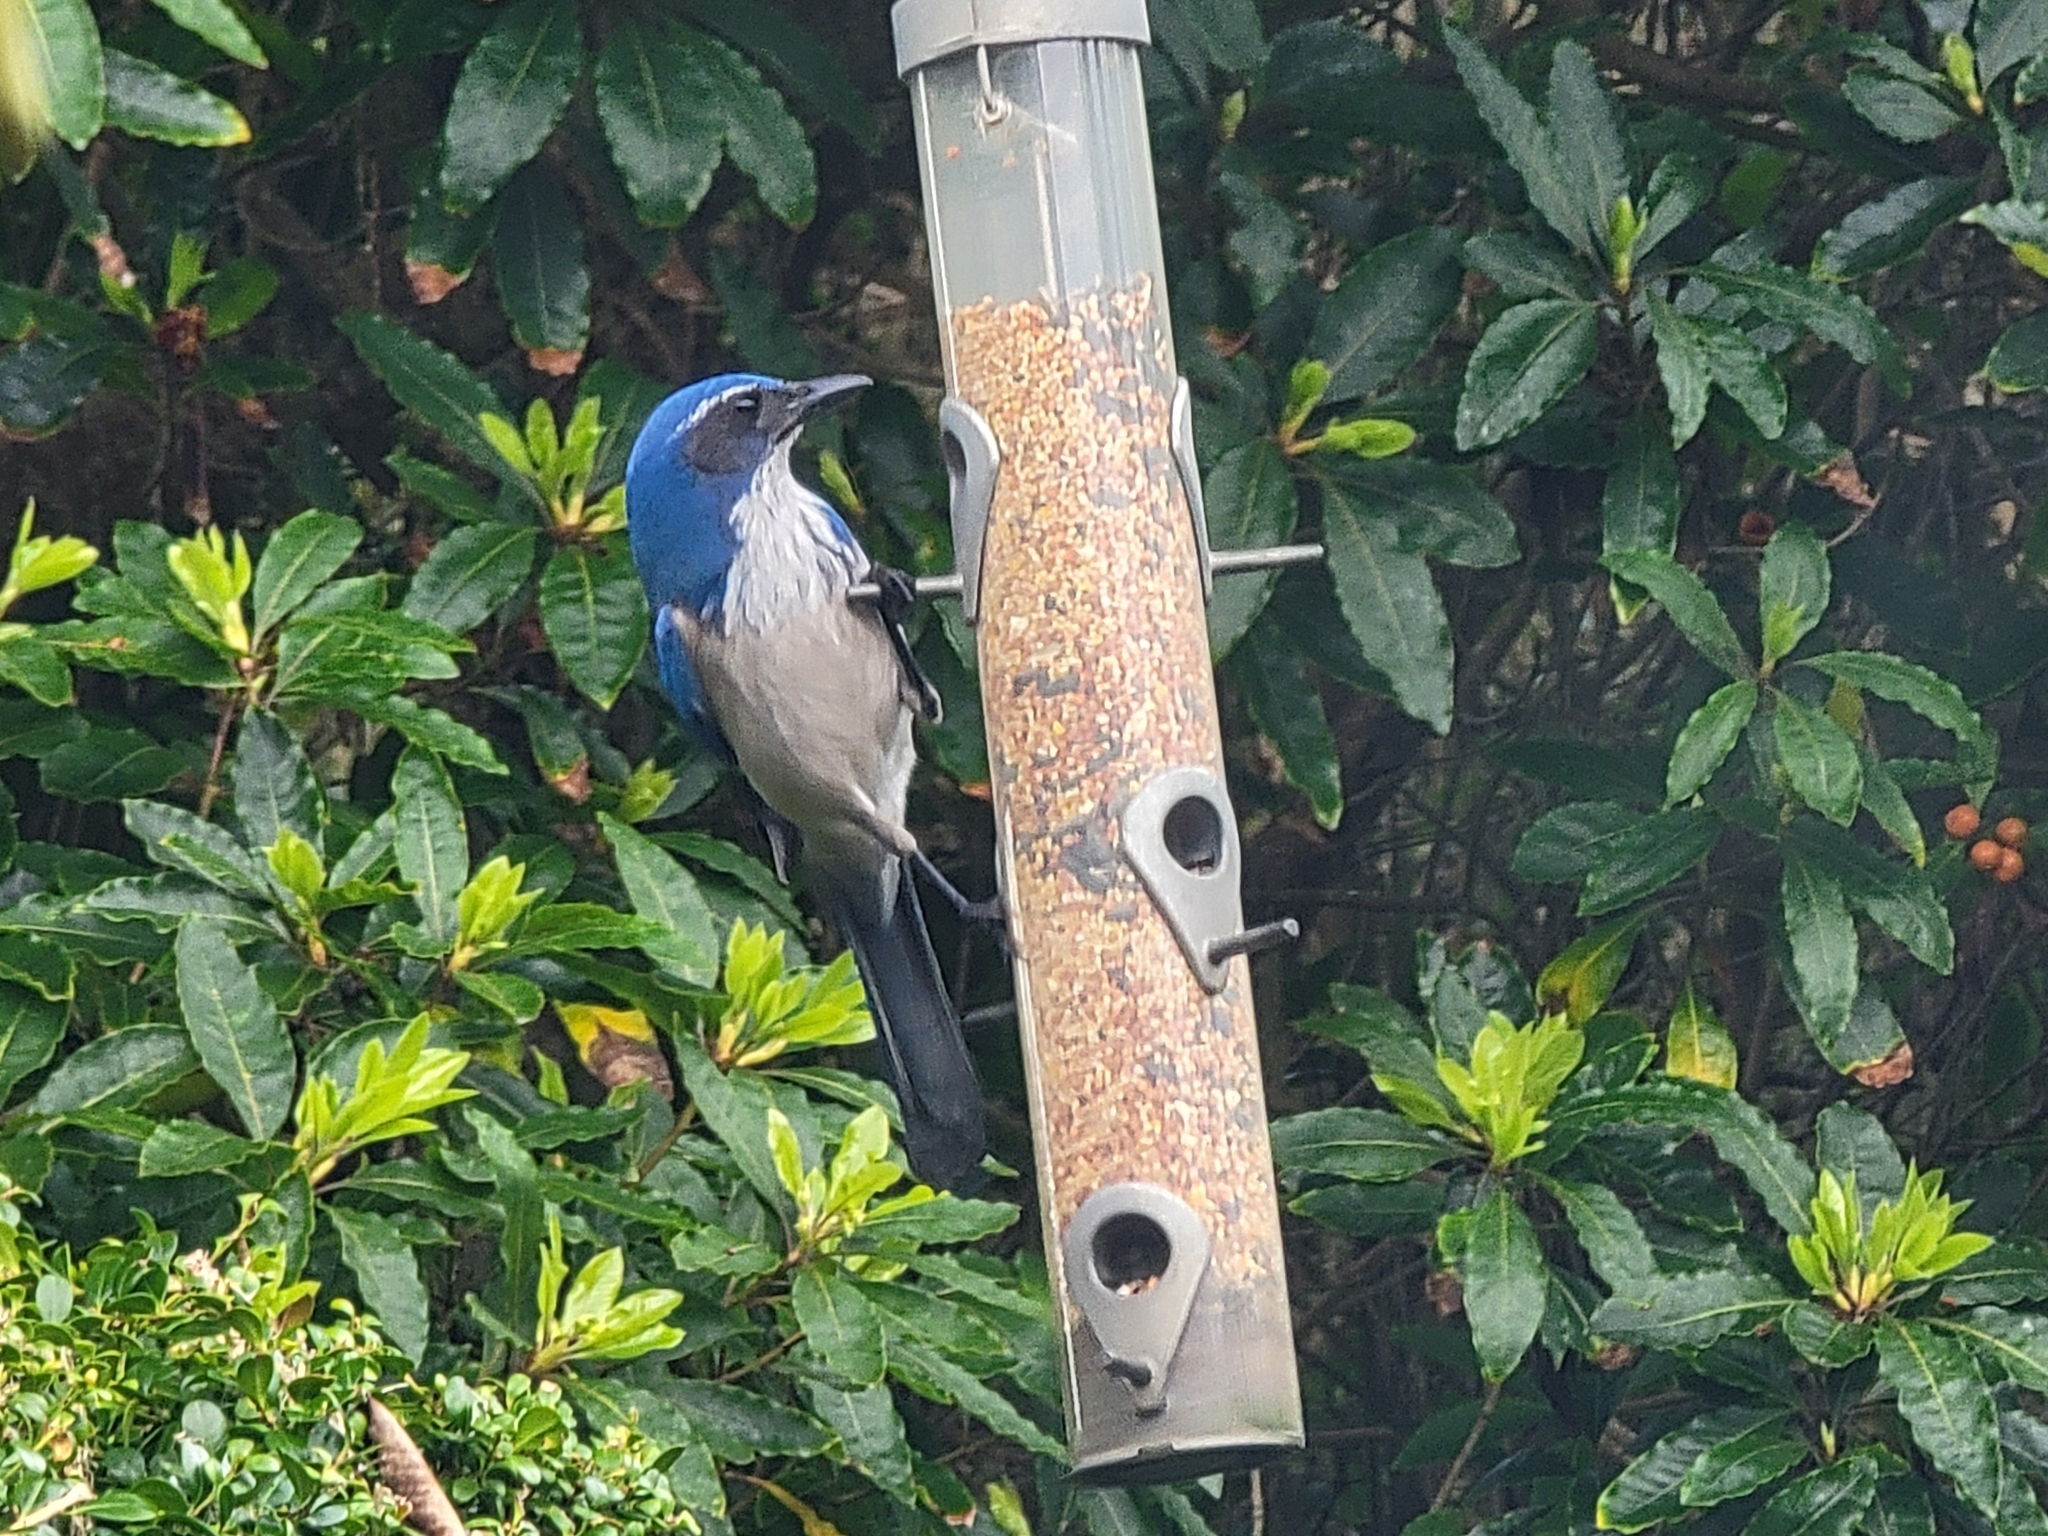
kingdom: Animalia
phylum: Chordata
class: Aves
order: Passeriformes
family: Corvidae
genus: Aphelocoma
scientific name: Aphelocoma californica
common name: California scrub-jay
